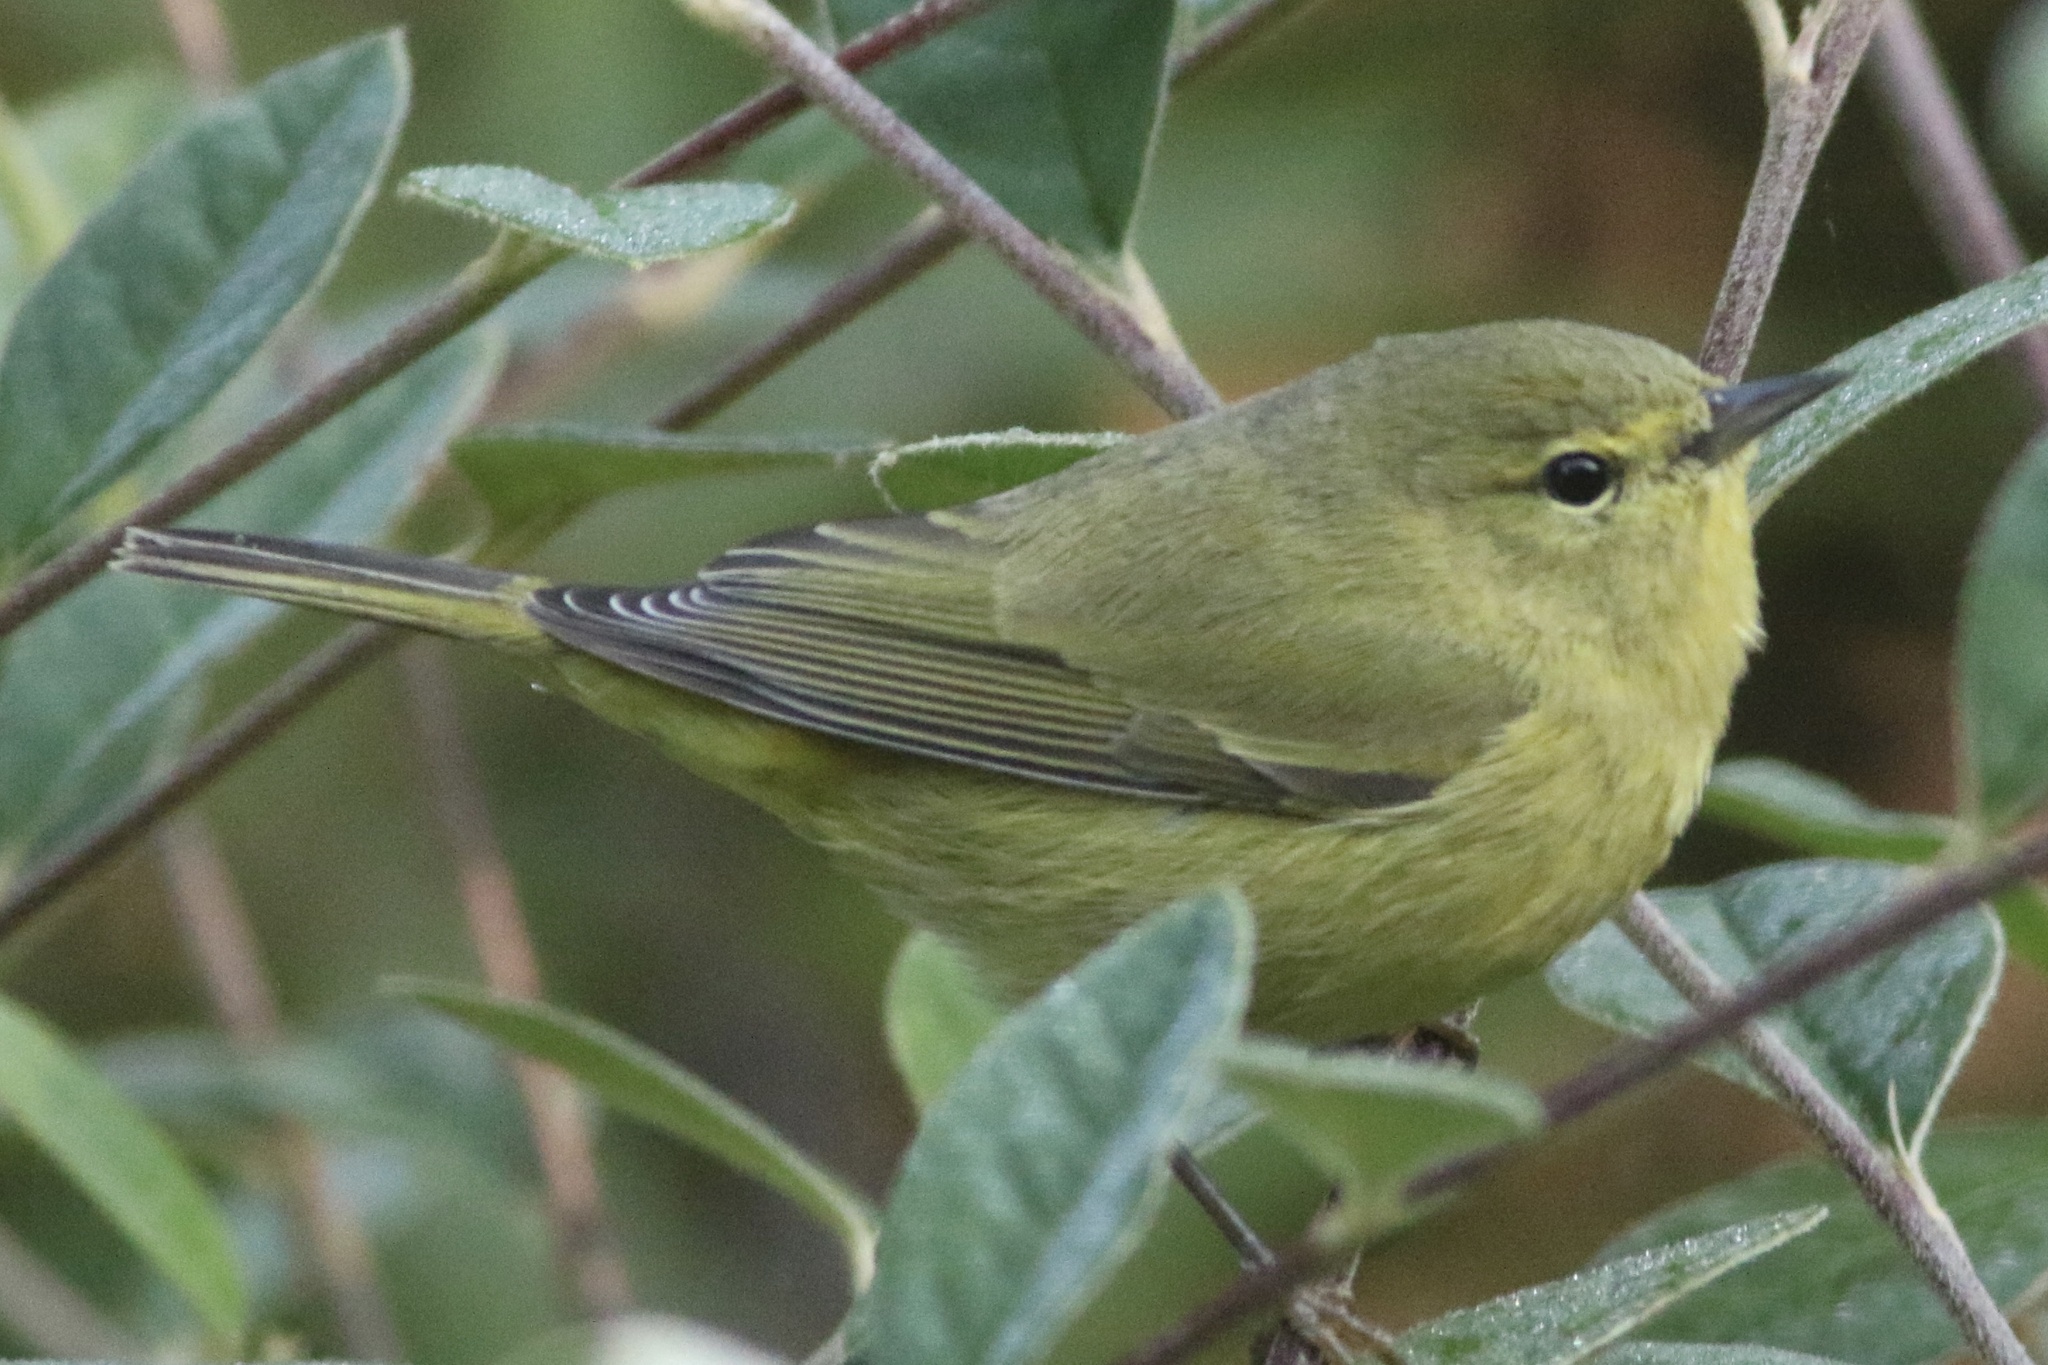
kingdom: Animalia
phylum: Chordata
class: Aves
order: Passeriformes
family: Parulidae
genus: Leiothlypis
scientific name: Leiothlypis celata
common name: Orange-crowned warbler
